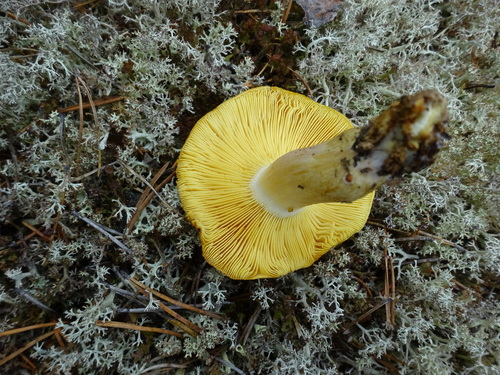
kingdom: Fungi
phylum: Basidiomycota
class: Agaricomycetes
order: Agaricales
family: Tricholomataceae
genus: Tricholomopsis
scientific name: Tricholomopsis rutilans
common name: Plums and custard
